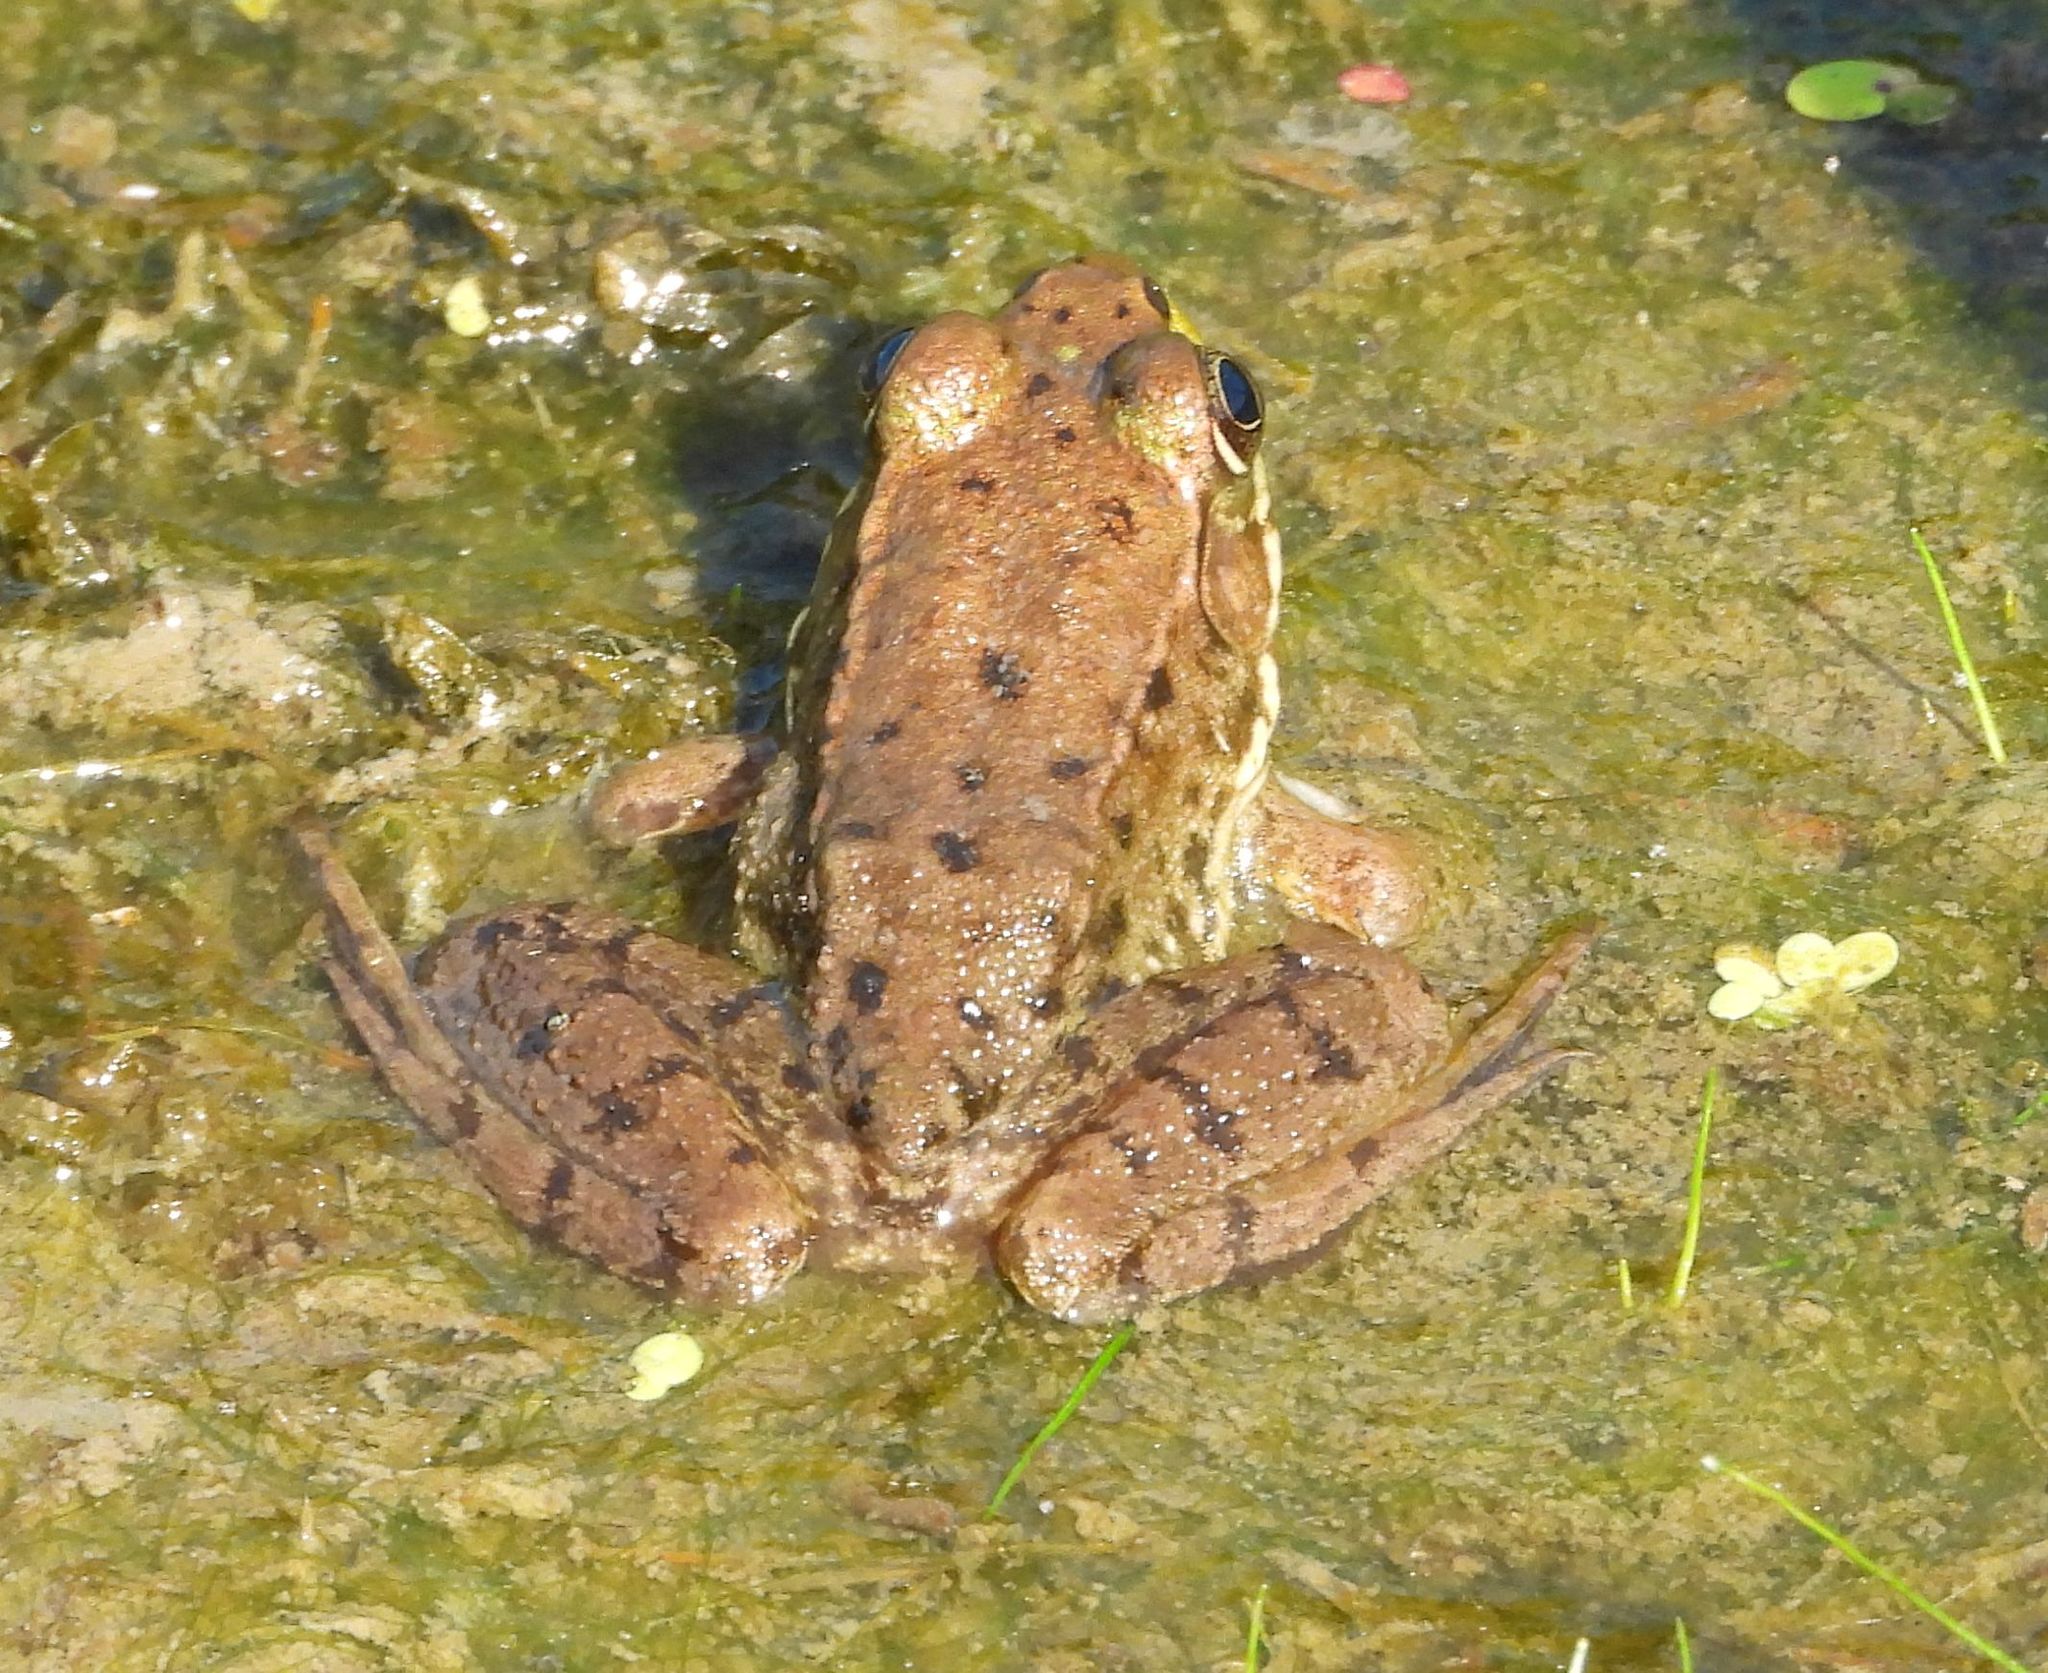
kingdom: Animalia
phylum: Chordata
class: Amphibia
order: Anura
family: Ranidae
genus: Lithobates
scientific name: Lithobates clamitans
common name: Green frog
